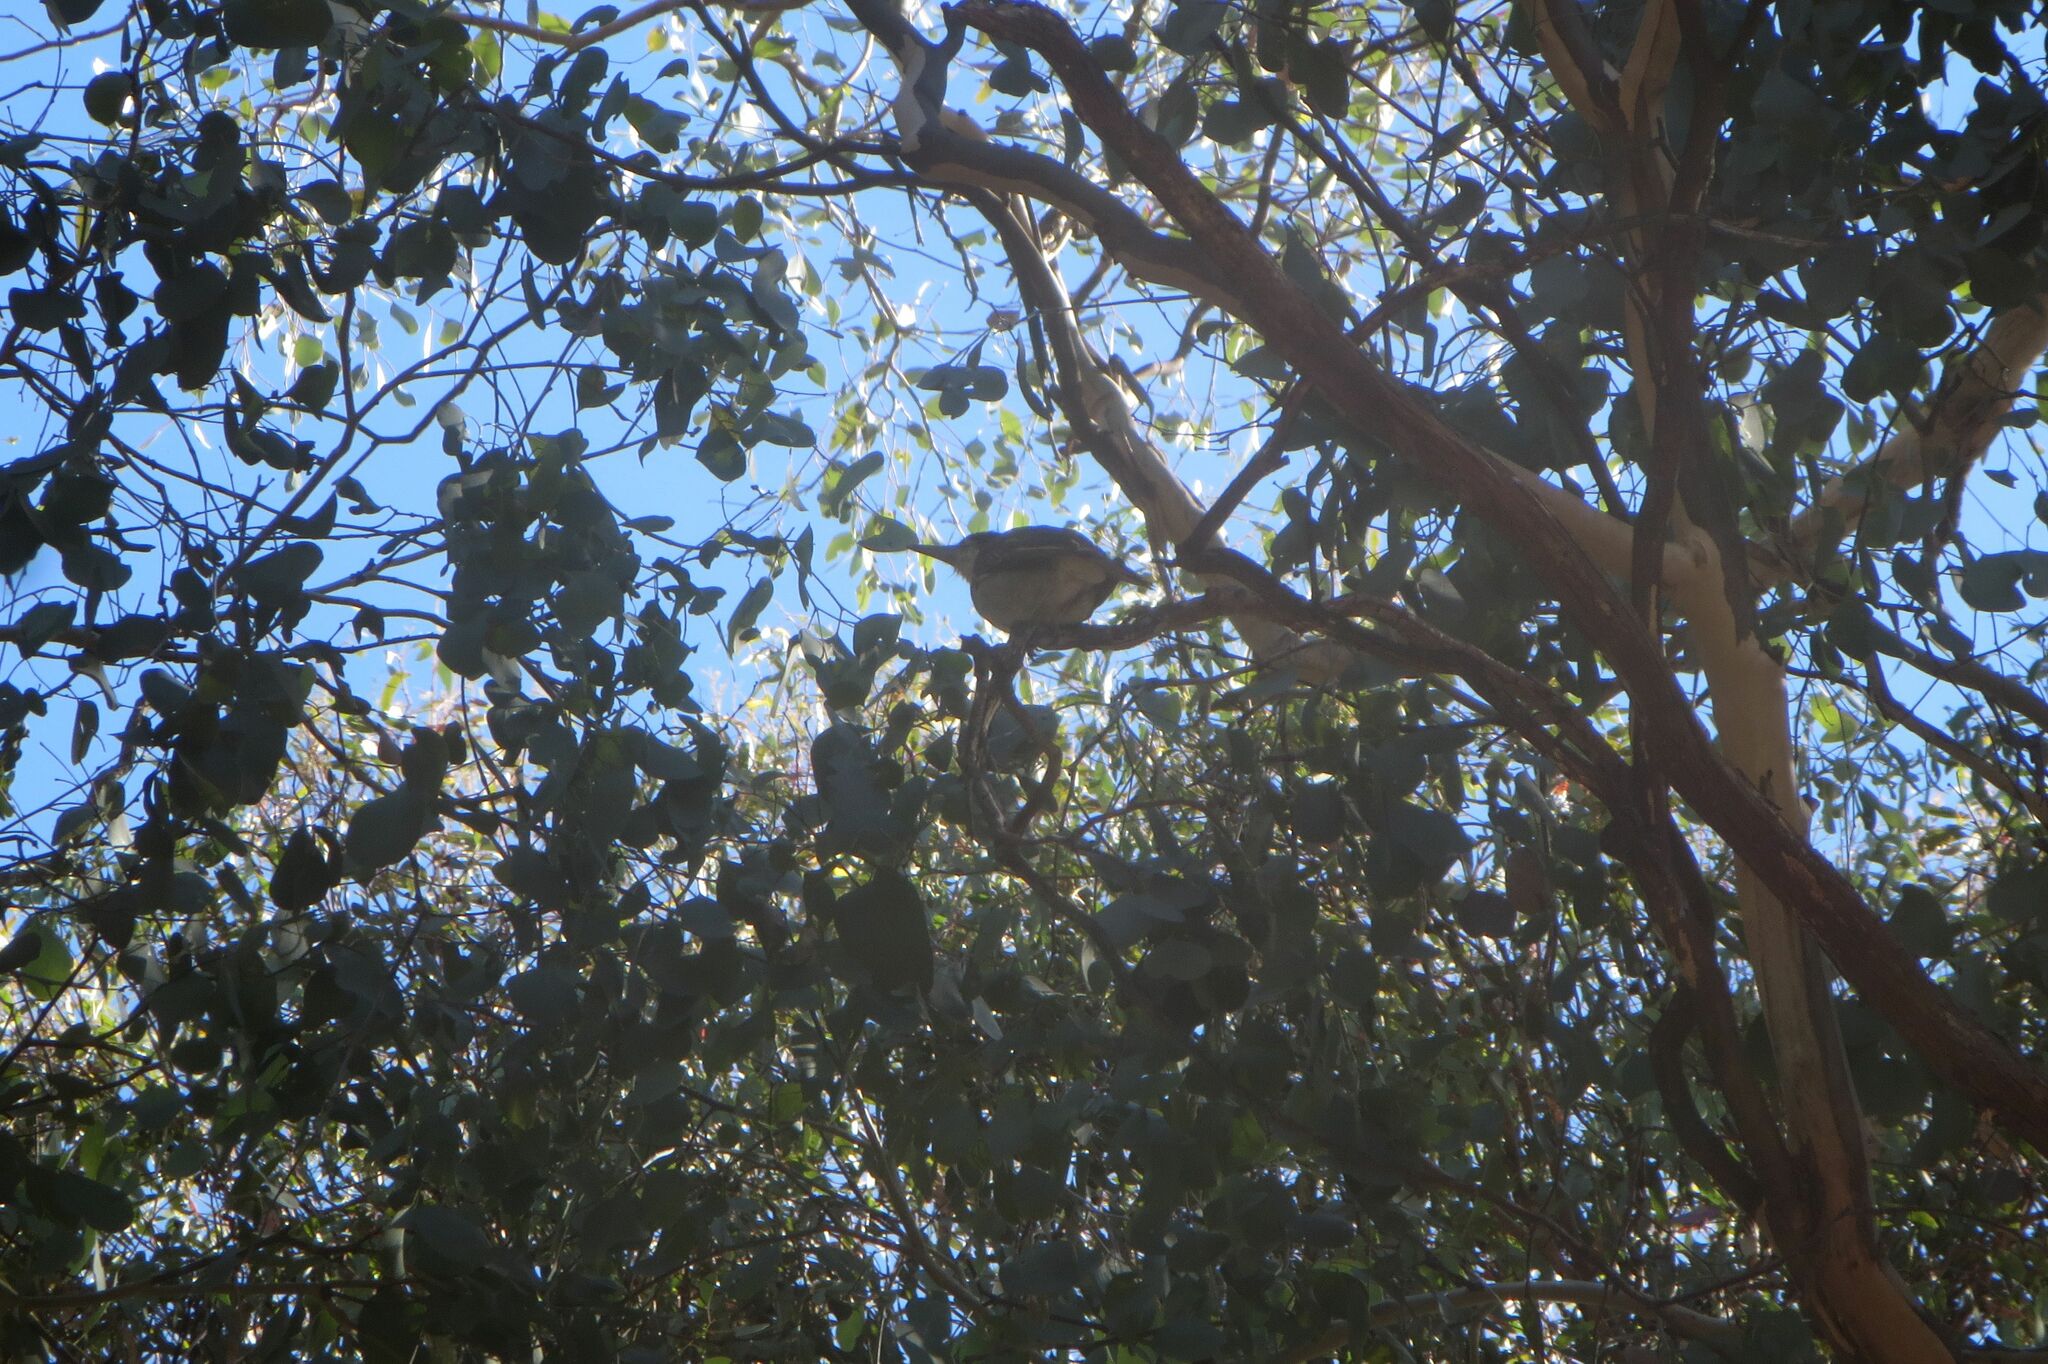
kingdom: Animalia
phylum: Chordata
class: Aves
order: Passeriformes
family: Cracticidae
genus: Cracticus
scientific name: Cracticus torquatus
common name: Grey butcherbird
